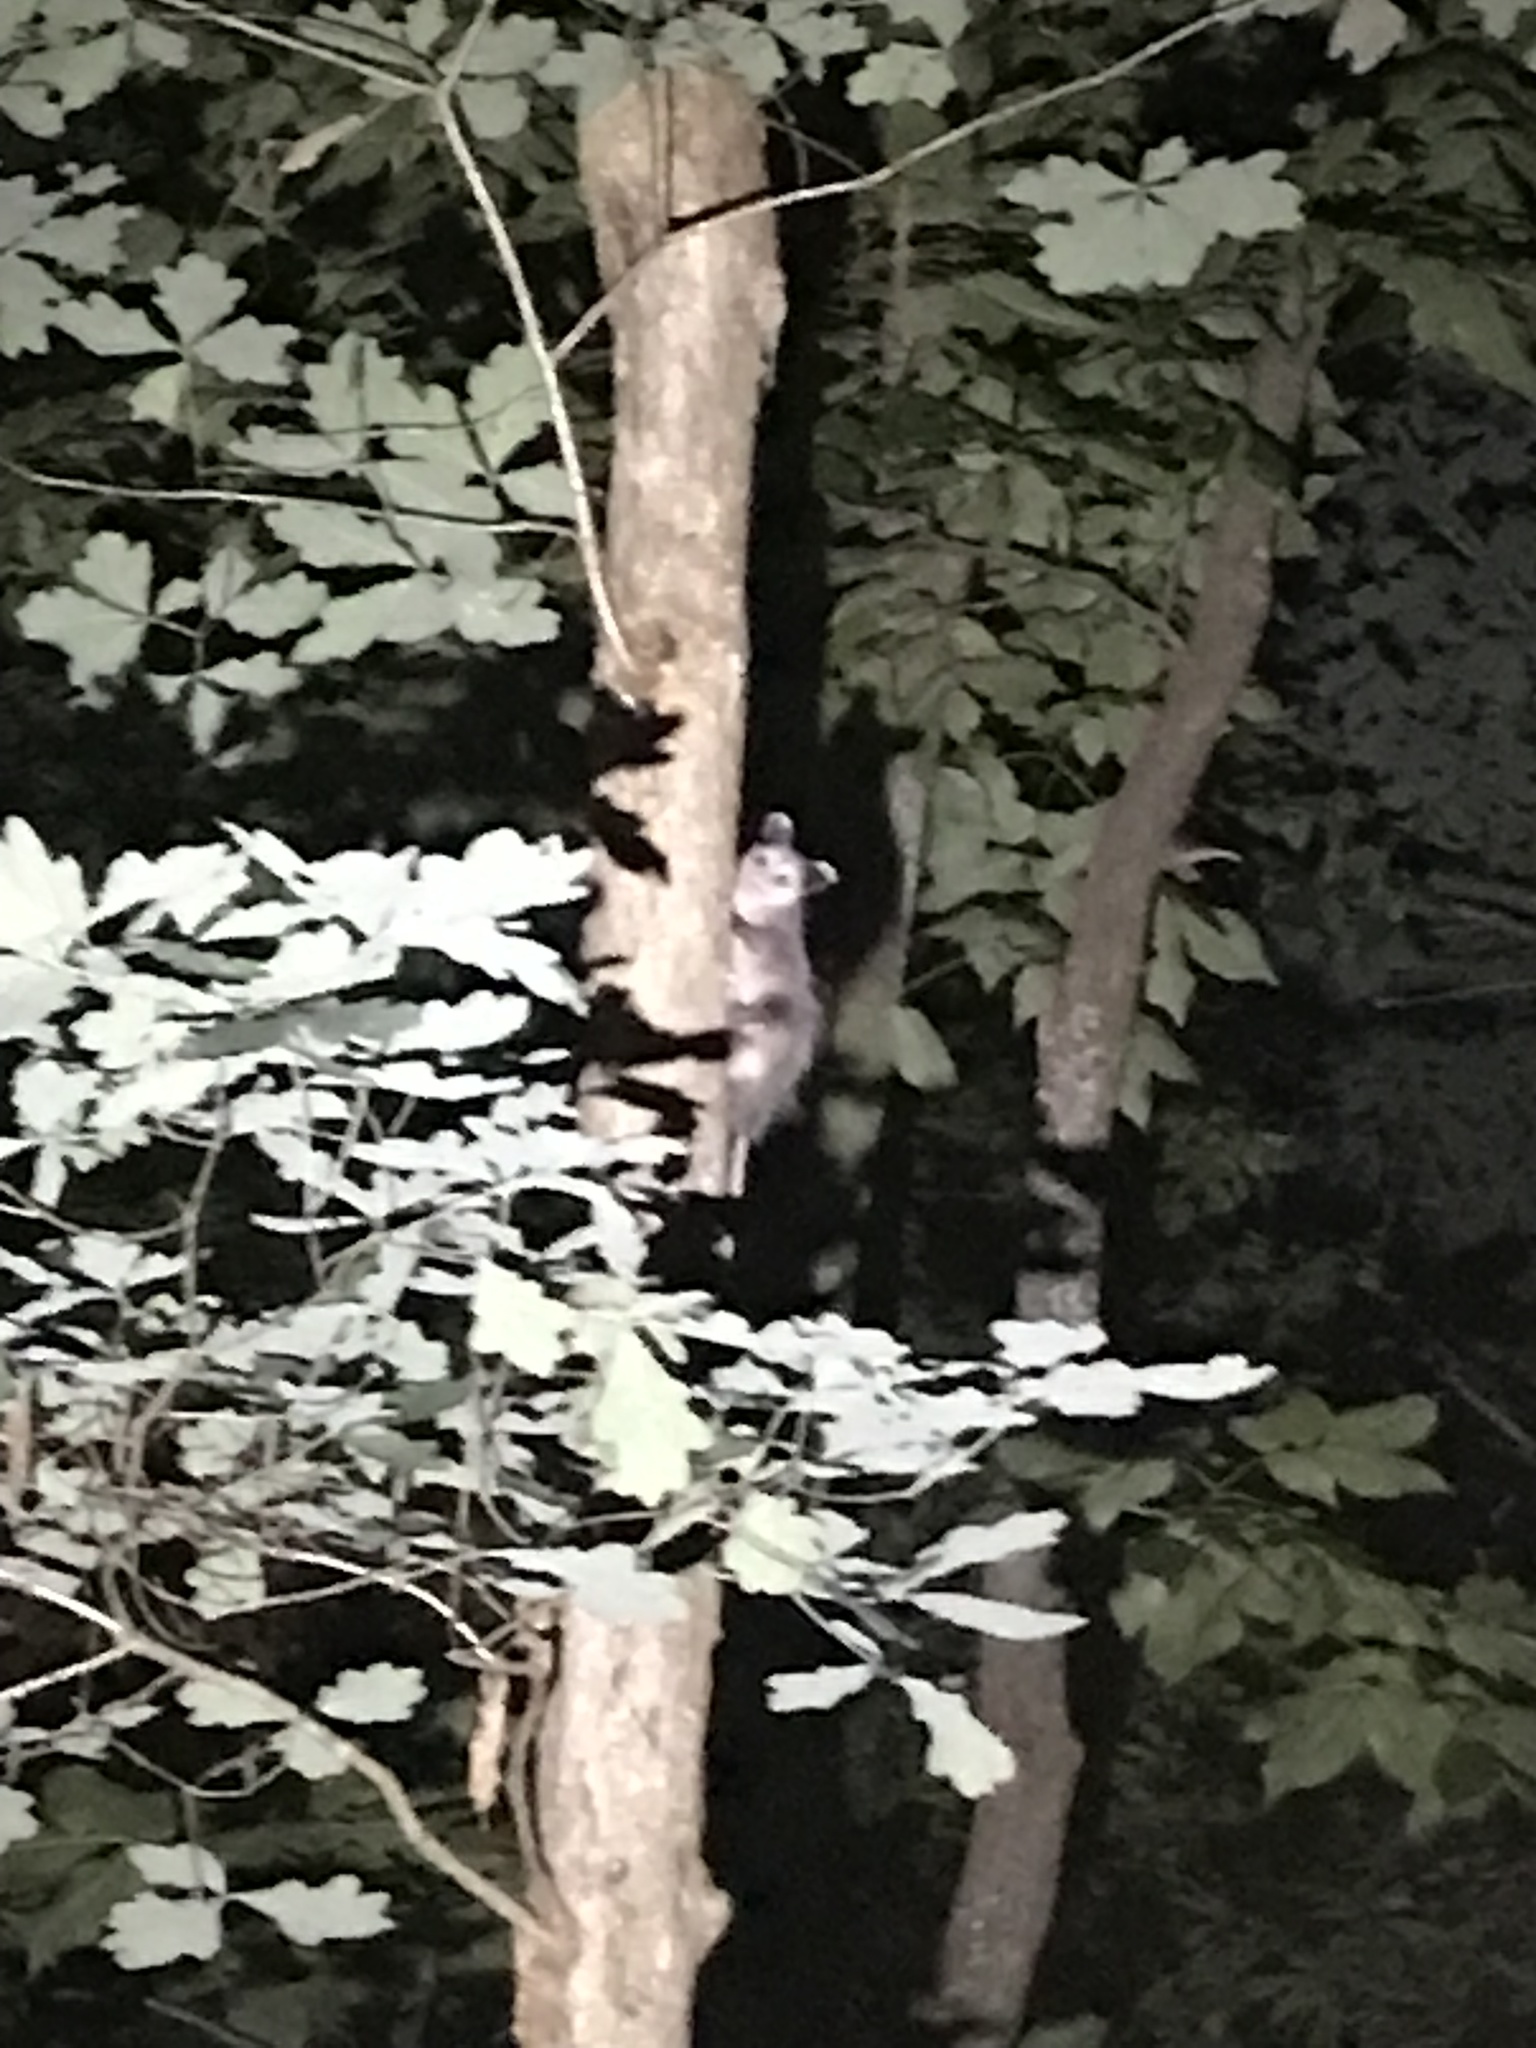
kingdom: Animalia
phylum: Chordata
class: Mammalia
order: Didelphimorphia
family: Didelphidae
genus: Didelphis
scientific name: Didelphis virginiana
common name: Virginia opossum
